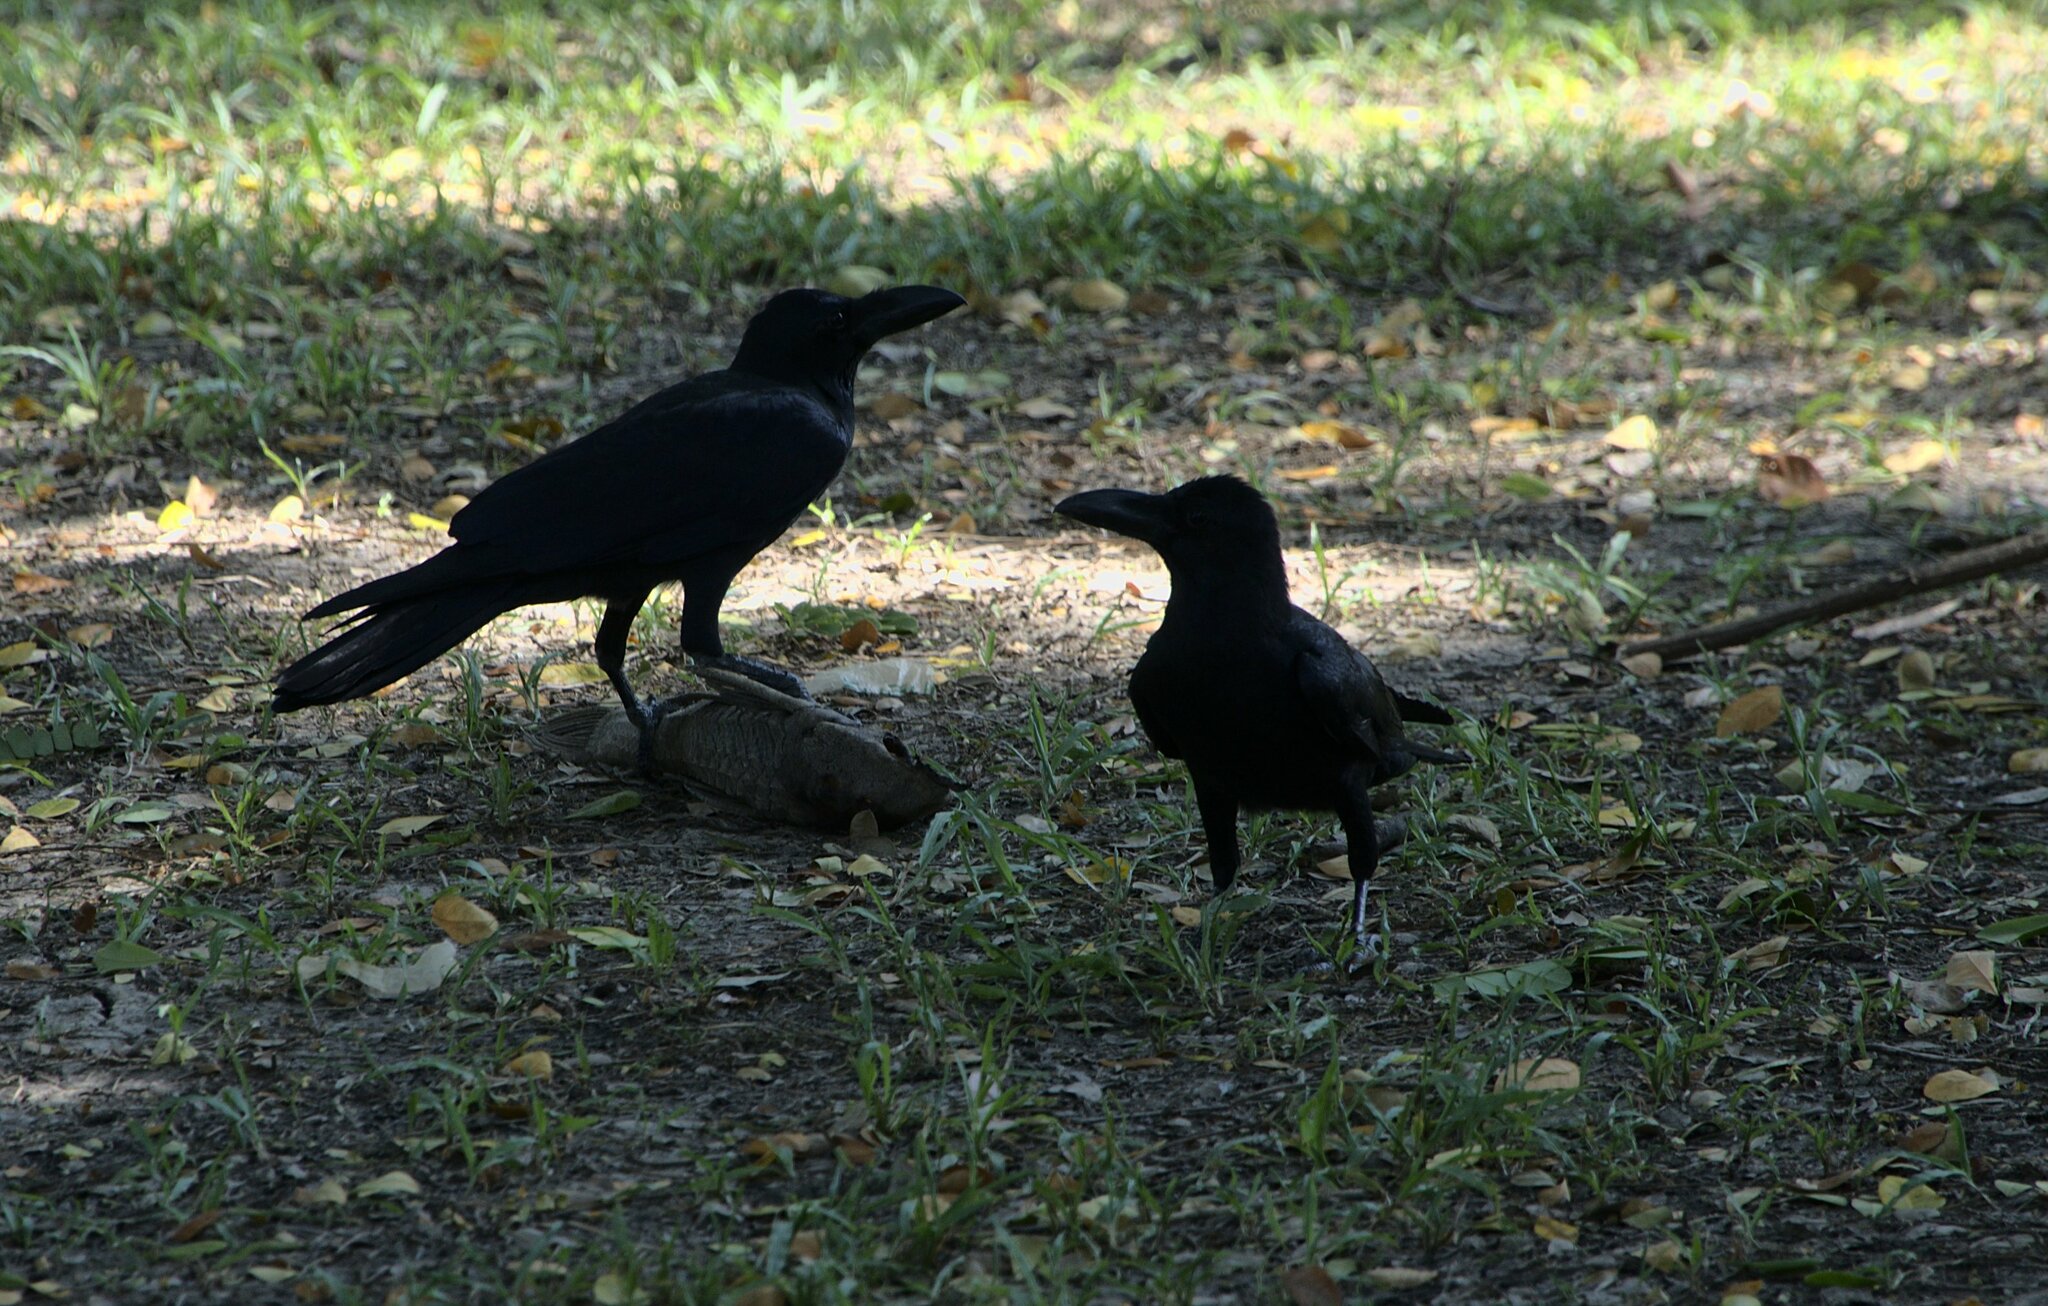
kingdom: Animalia
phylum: Chordata
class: Aves
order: Passeriformes
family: Corvidae
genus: Corvus
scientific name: Corvus macrorhynchos
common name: Large-billed crow
